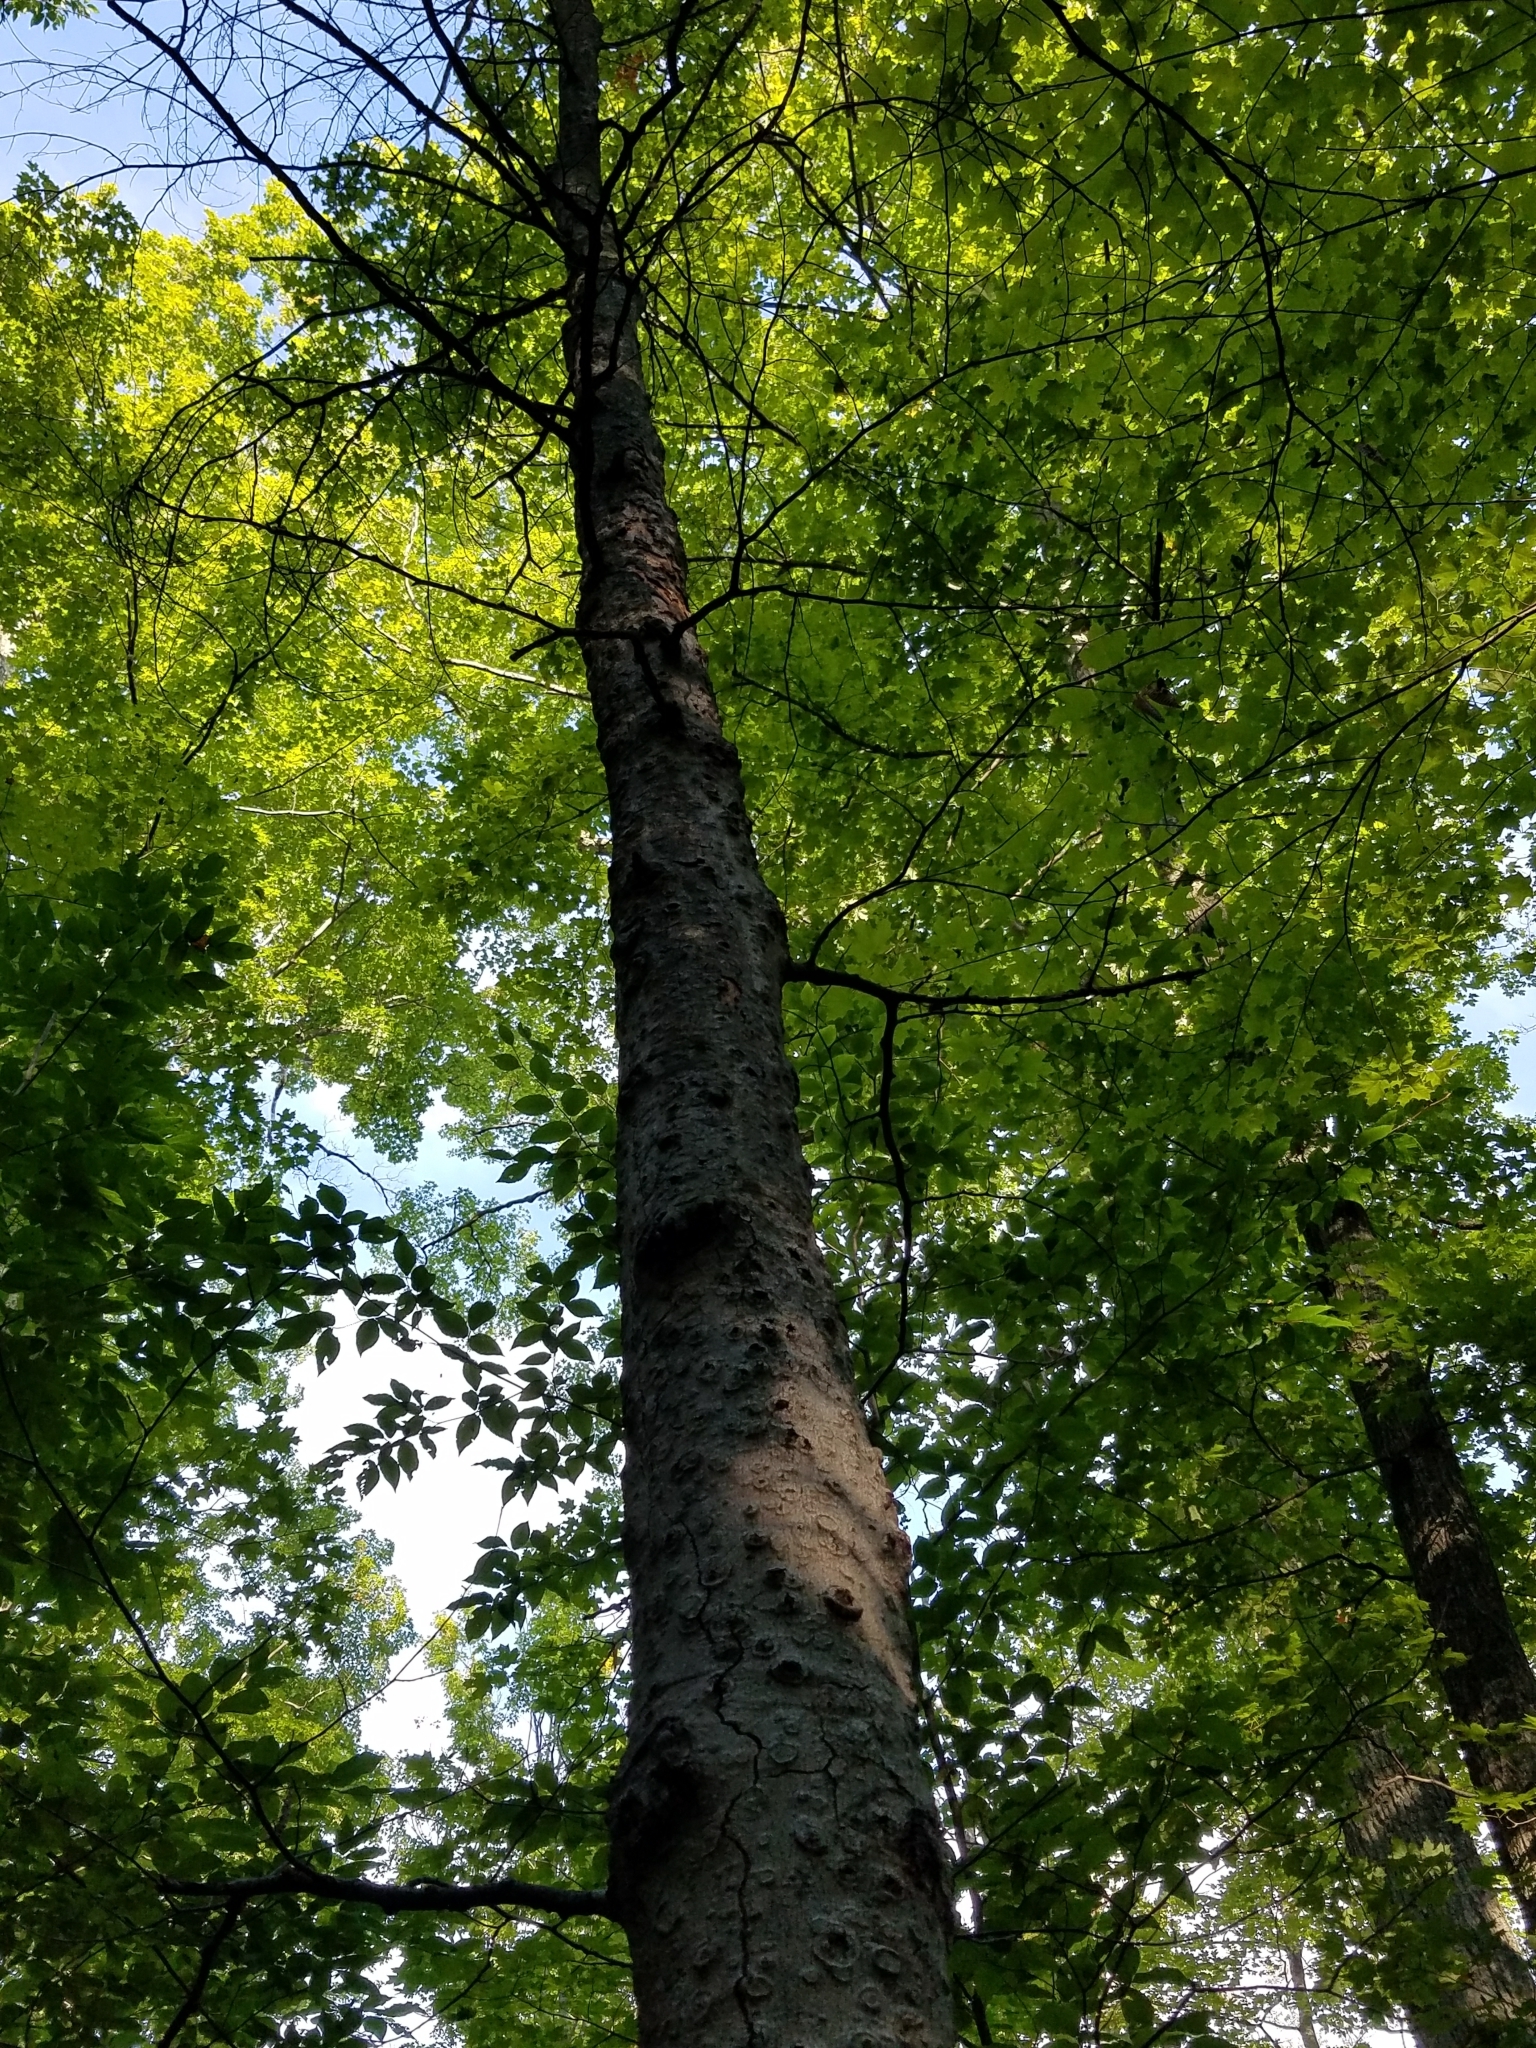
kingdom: Plantae
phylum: Tracheophyta
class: Magnoliopsida
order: Fagales
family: Fagaceae
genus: Fagus
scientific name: Fagus grandifolia
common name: American beech
